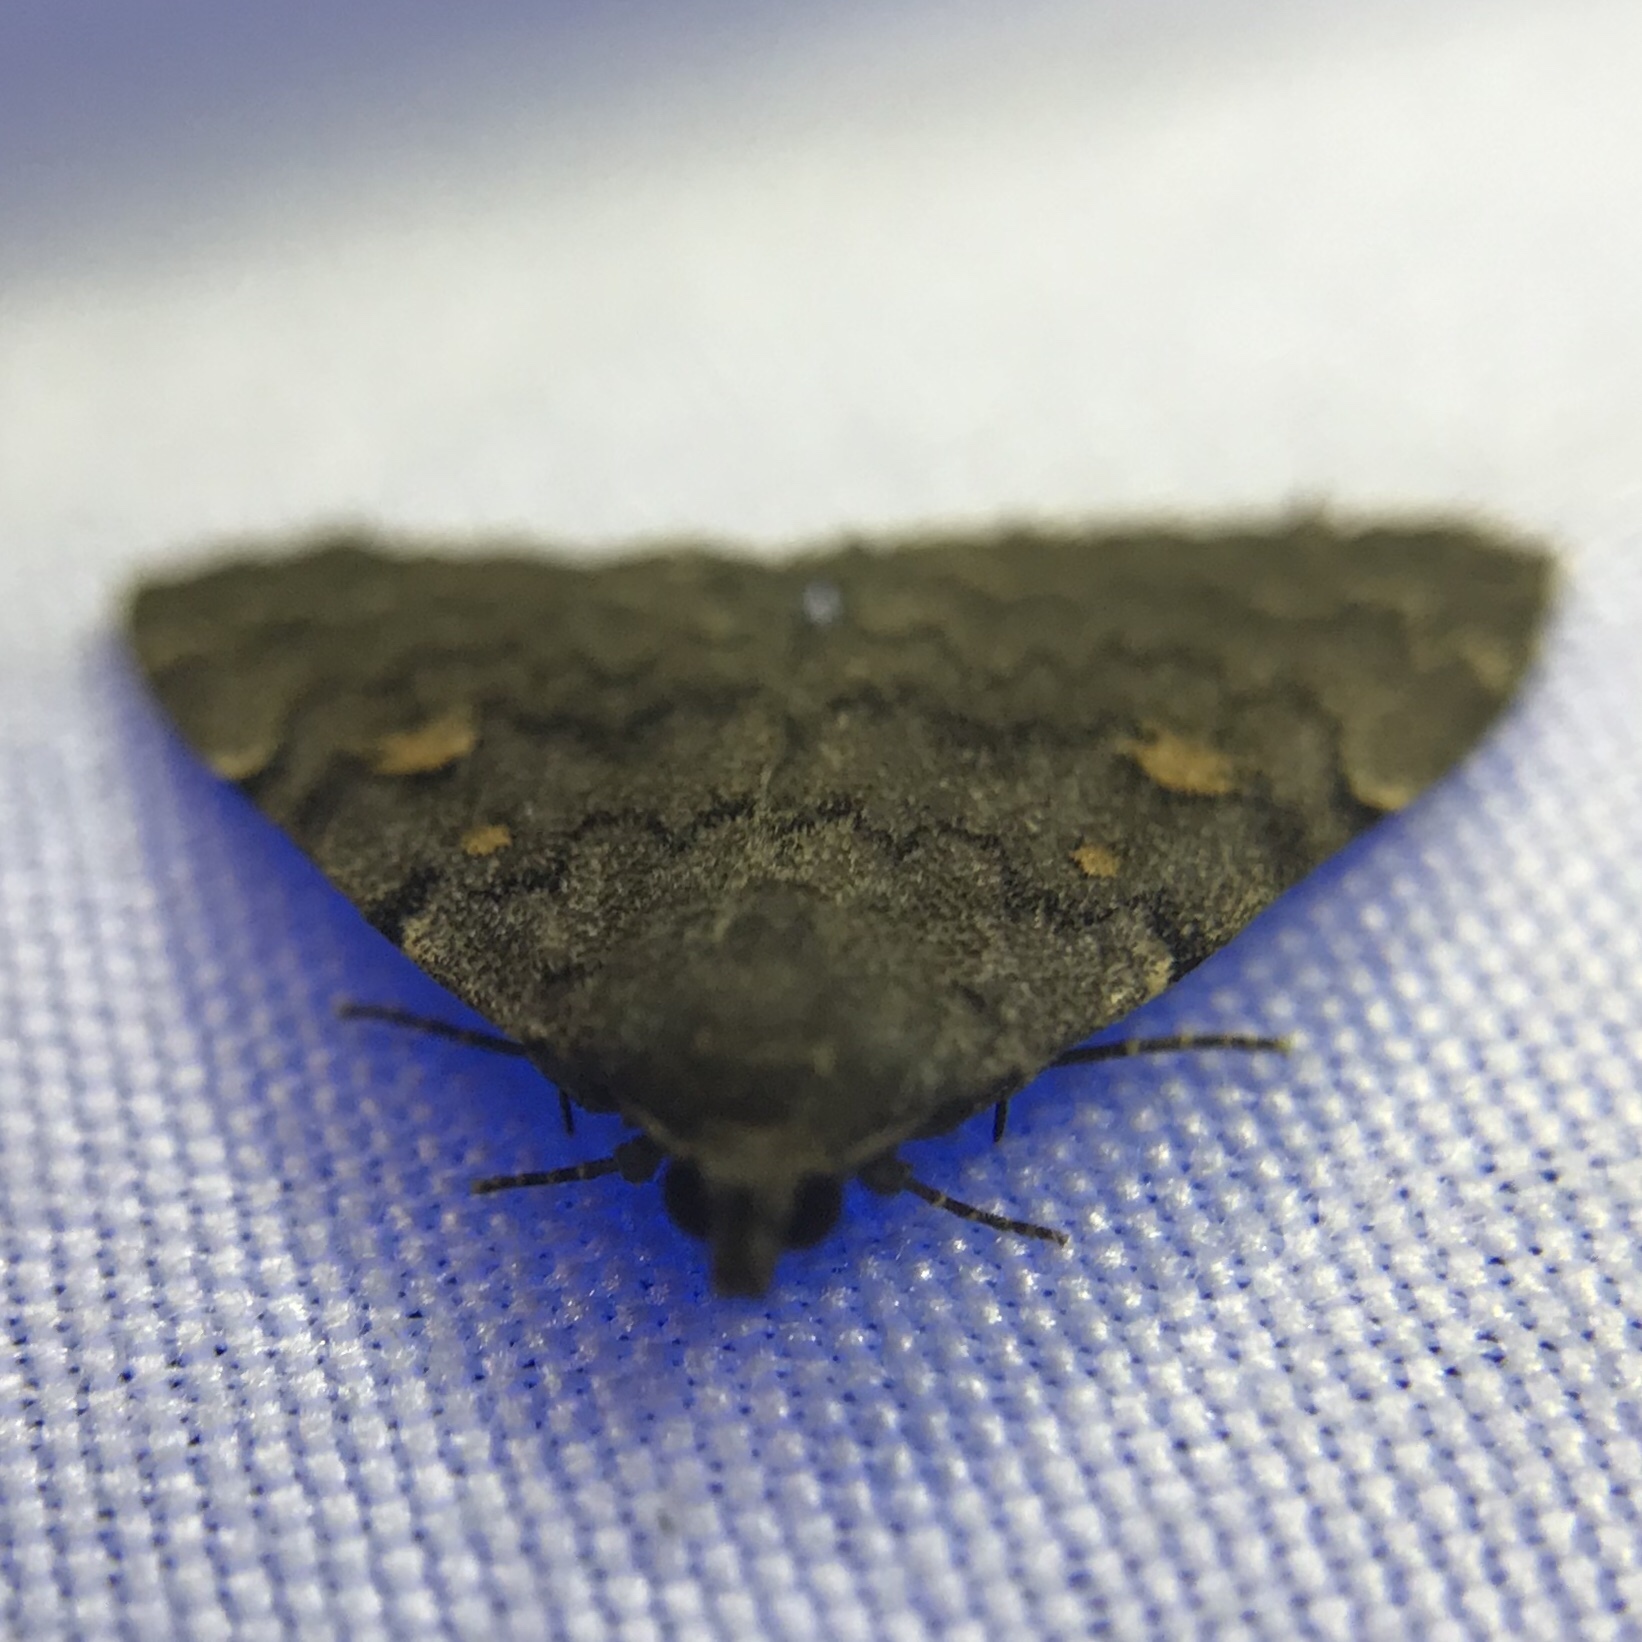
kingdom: Animalia
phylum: Arthropoda
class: Insecta
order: Lepidoptera
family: Erebidae
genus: Idia
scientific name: Idia aemula
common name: Common idia moth
